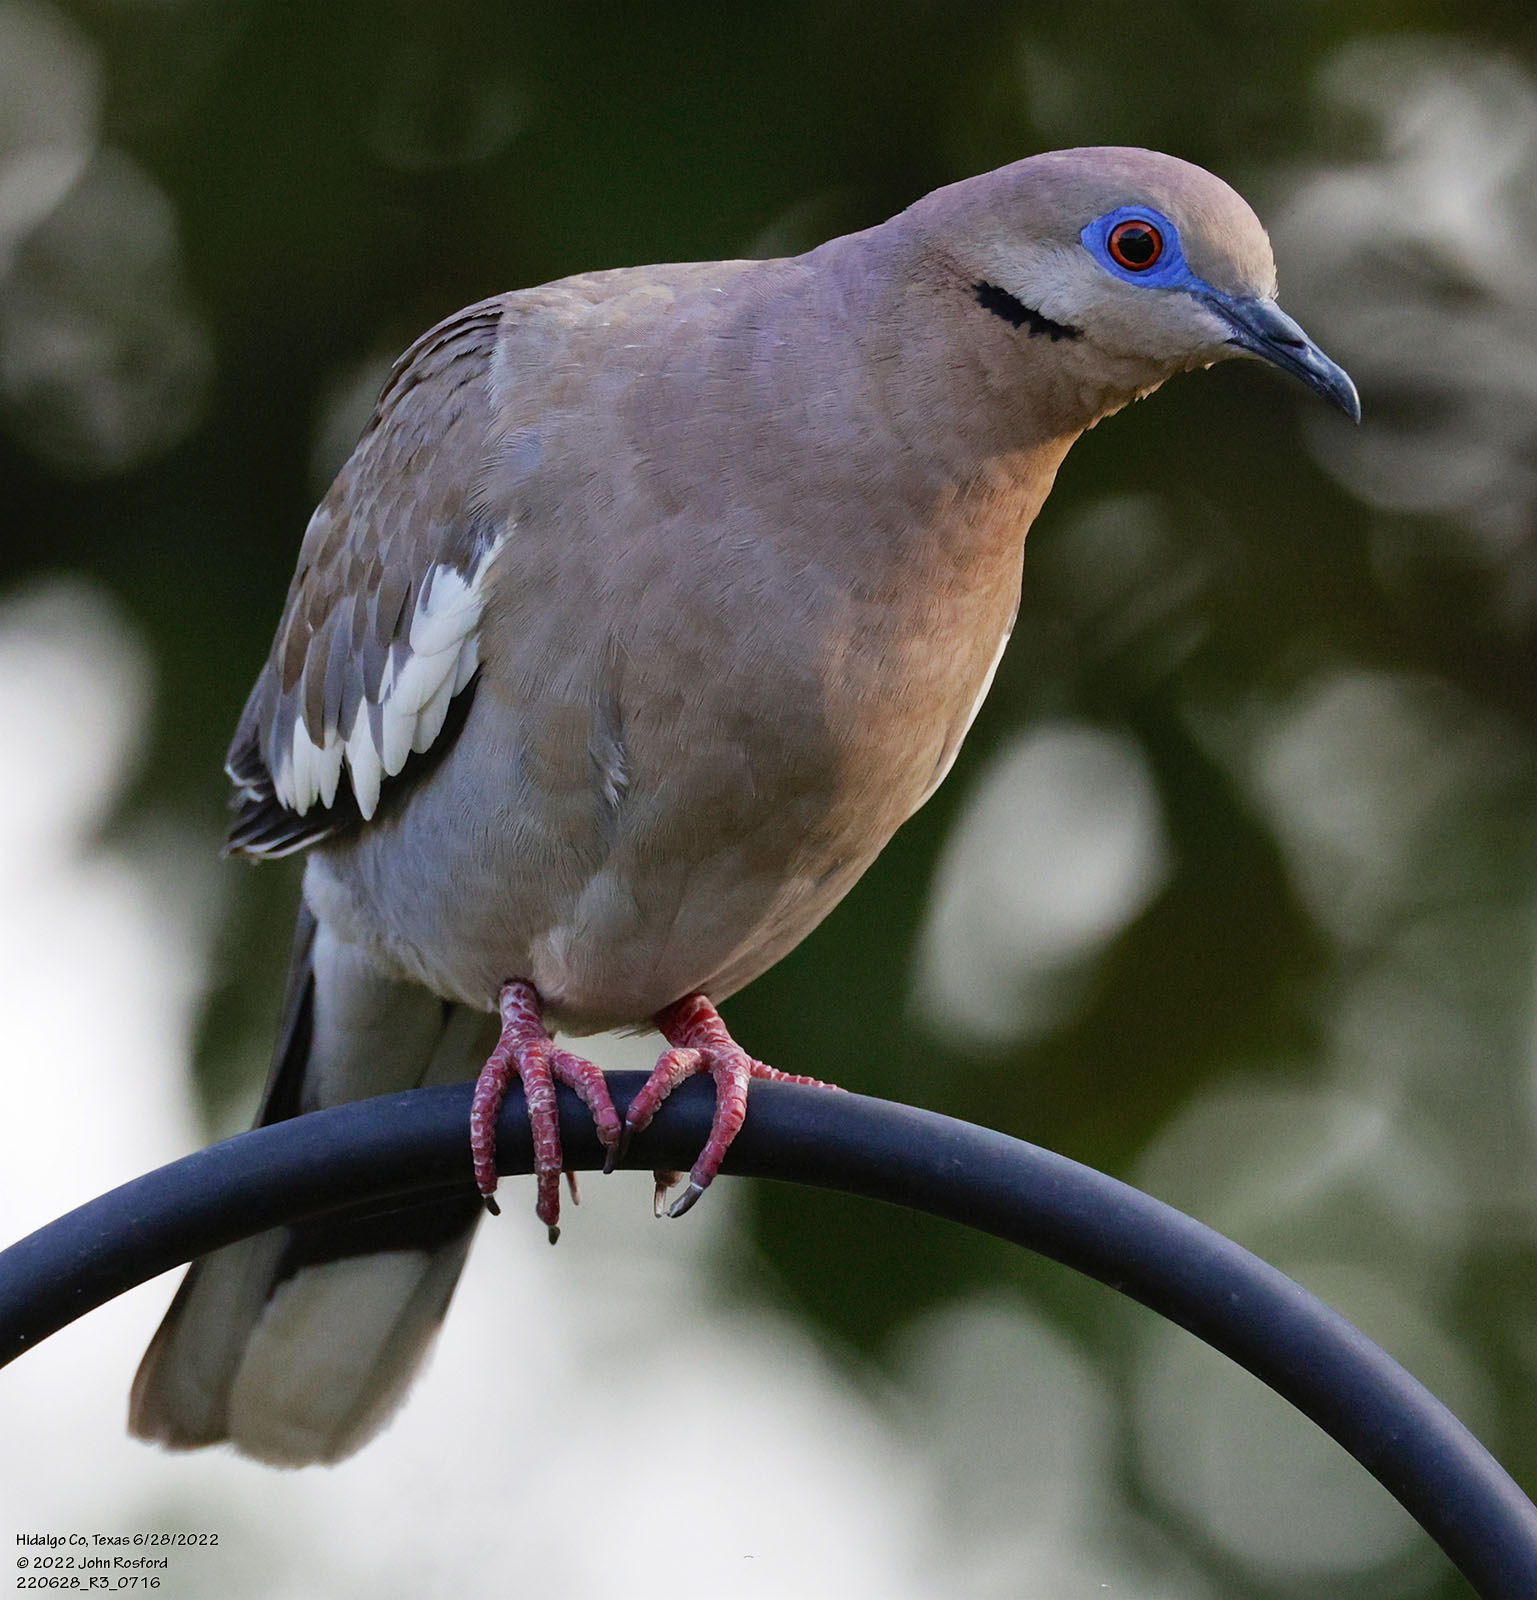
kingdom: Animalia
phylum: Chordata
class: Aves
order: Columbiformes
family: Columbidae
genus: Zenaida
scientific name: Zenaida asiatica
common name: White-winged dove
